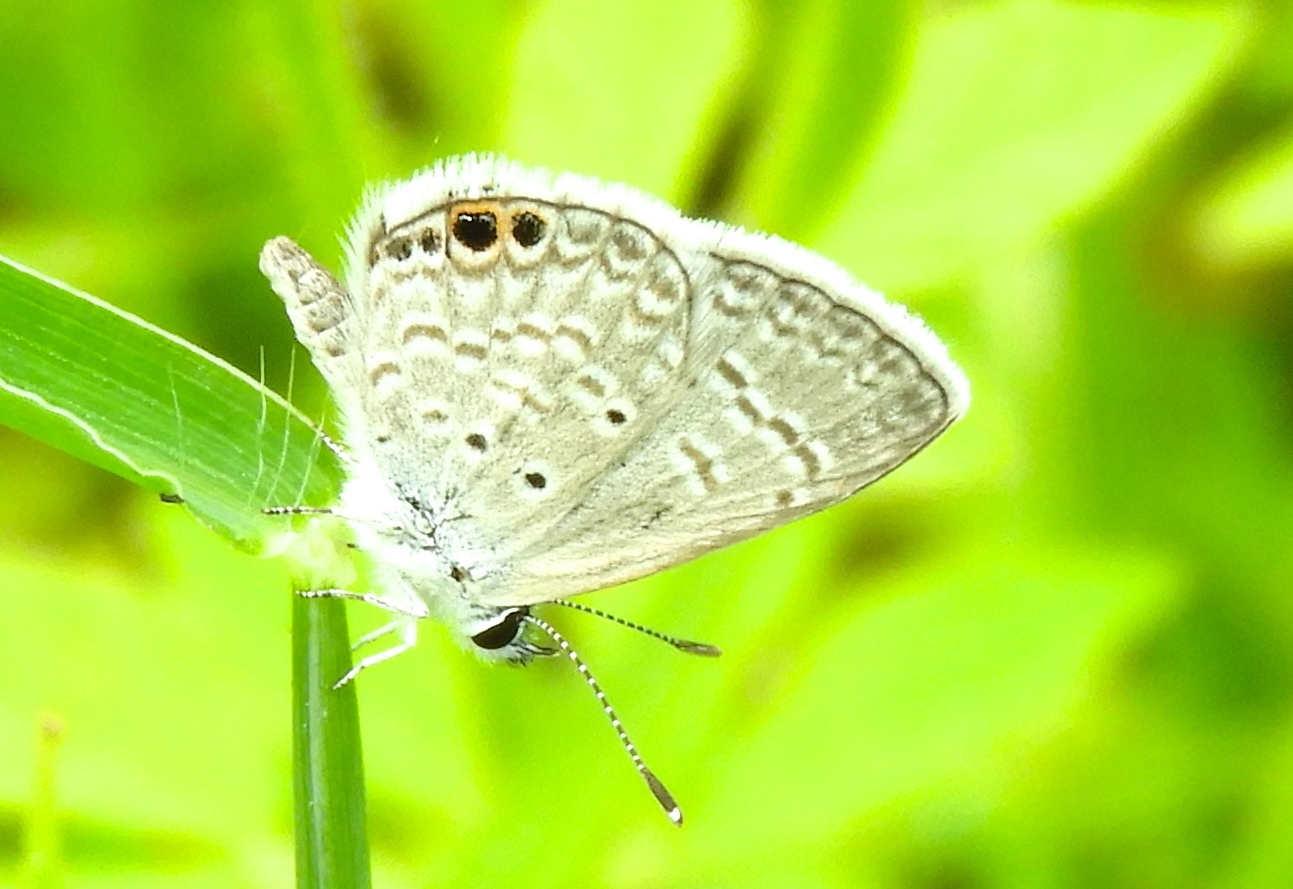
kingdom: Animalia
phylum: Arthropoda
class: Insecta
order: Lepidoptera
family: Lycaenidae
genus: Hemiargus
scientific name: Hemiargus ceraunus
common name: Ceraunus blue
